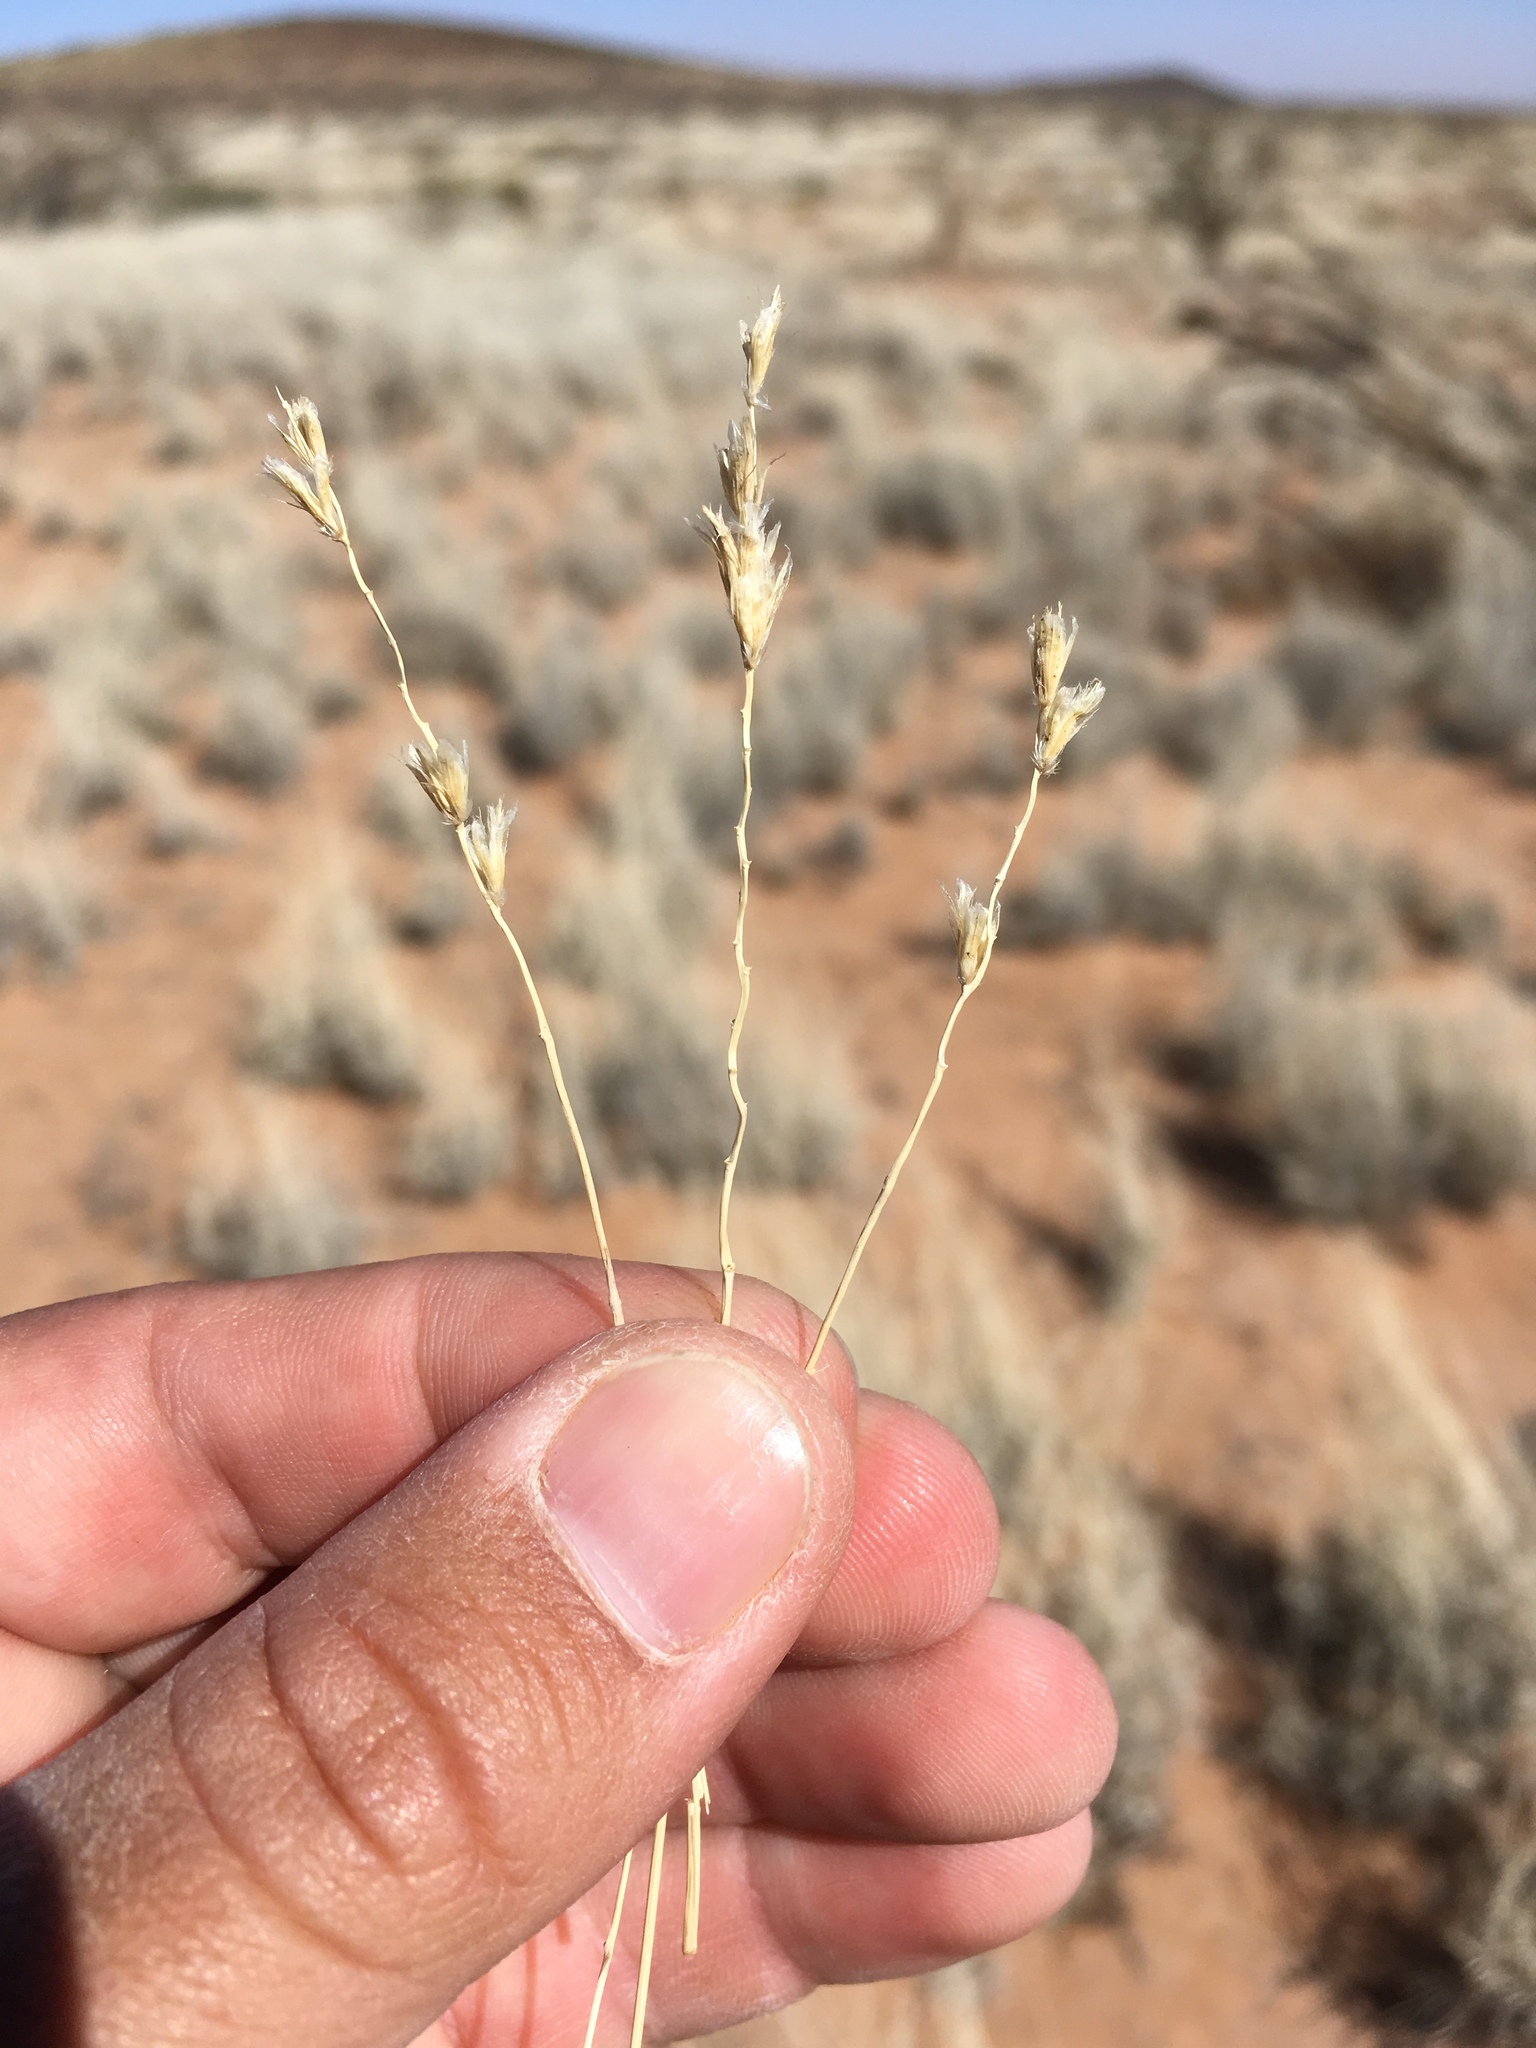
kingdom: Plantae
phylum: Tracheophyta
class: Liliopsida
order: Poales
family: Poaceae
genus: Hilaria
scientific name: Hilaria mutica
